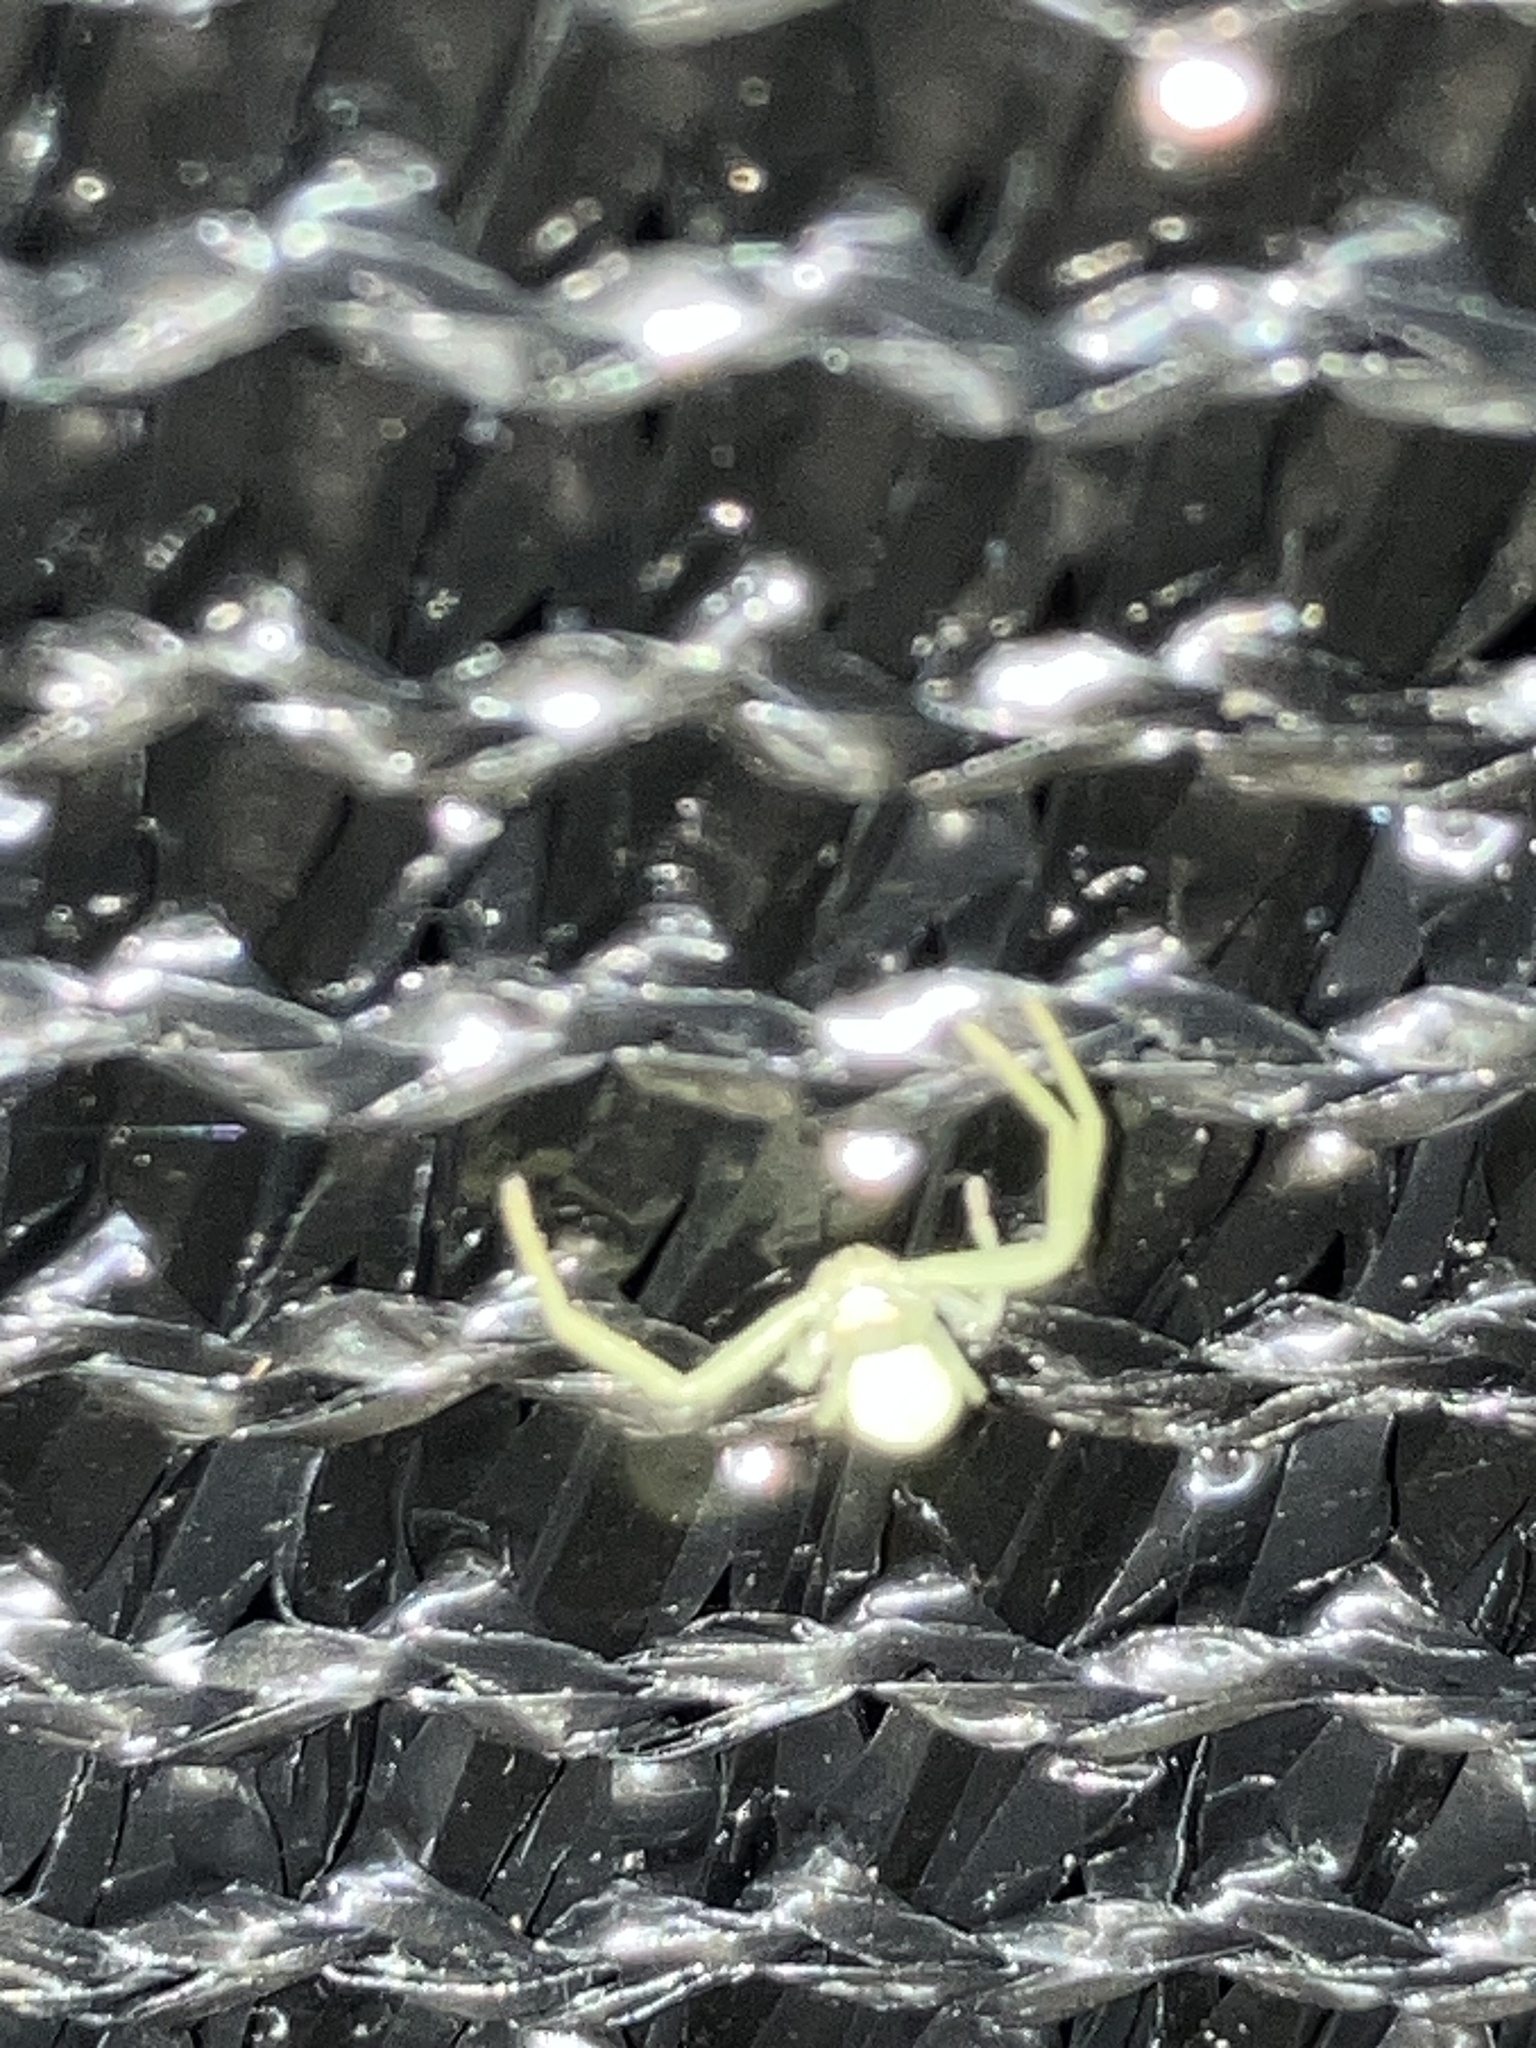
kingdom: Animalia
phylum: Arthropoda
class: Arachnida
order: Araneae
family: Thomisidae
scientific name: Thomisidae
